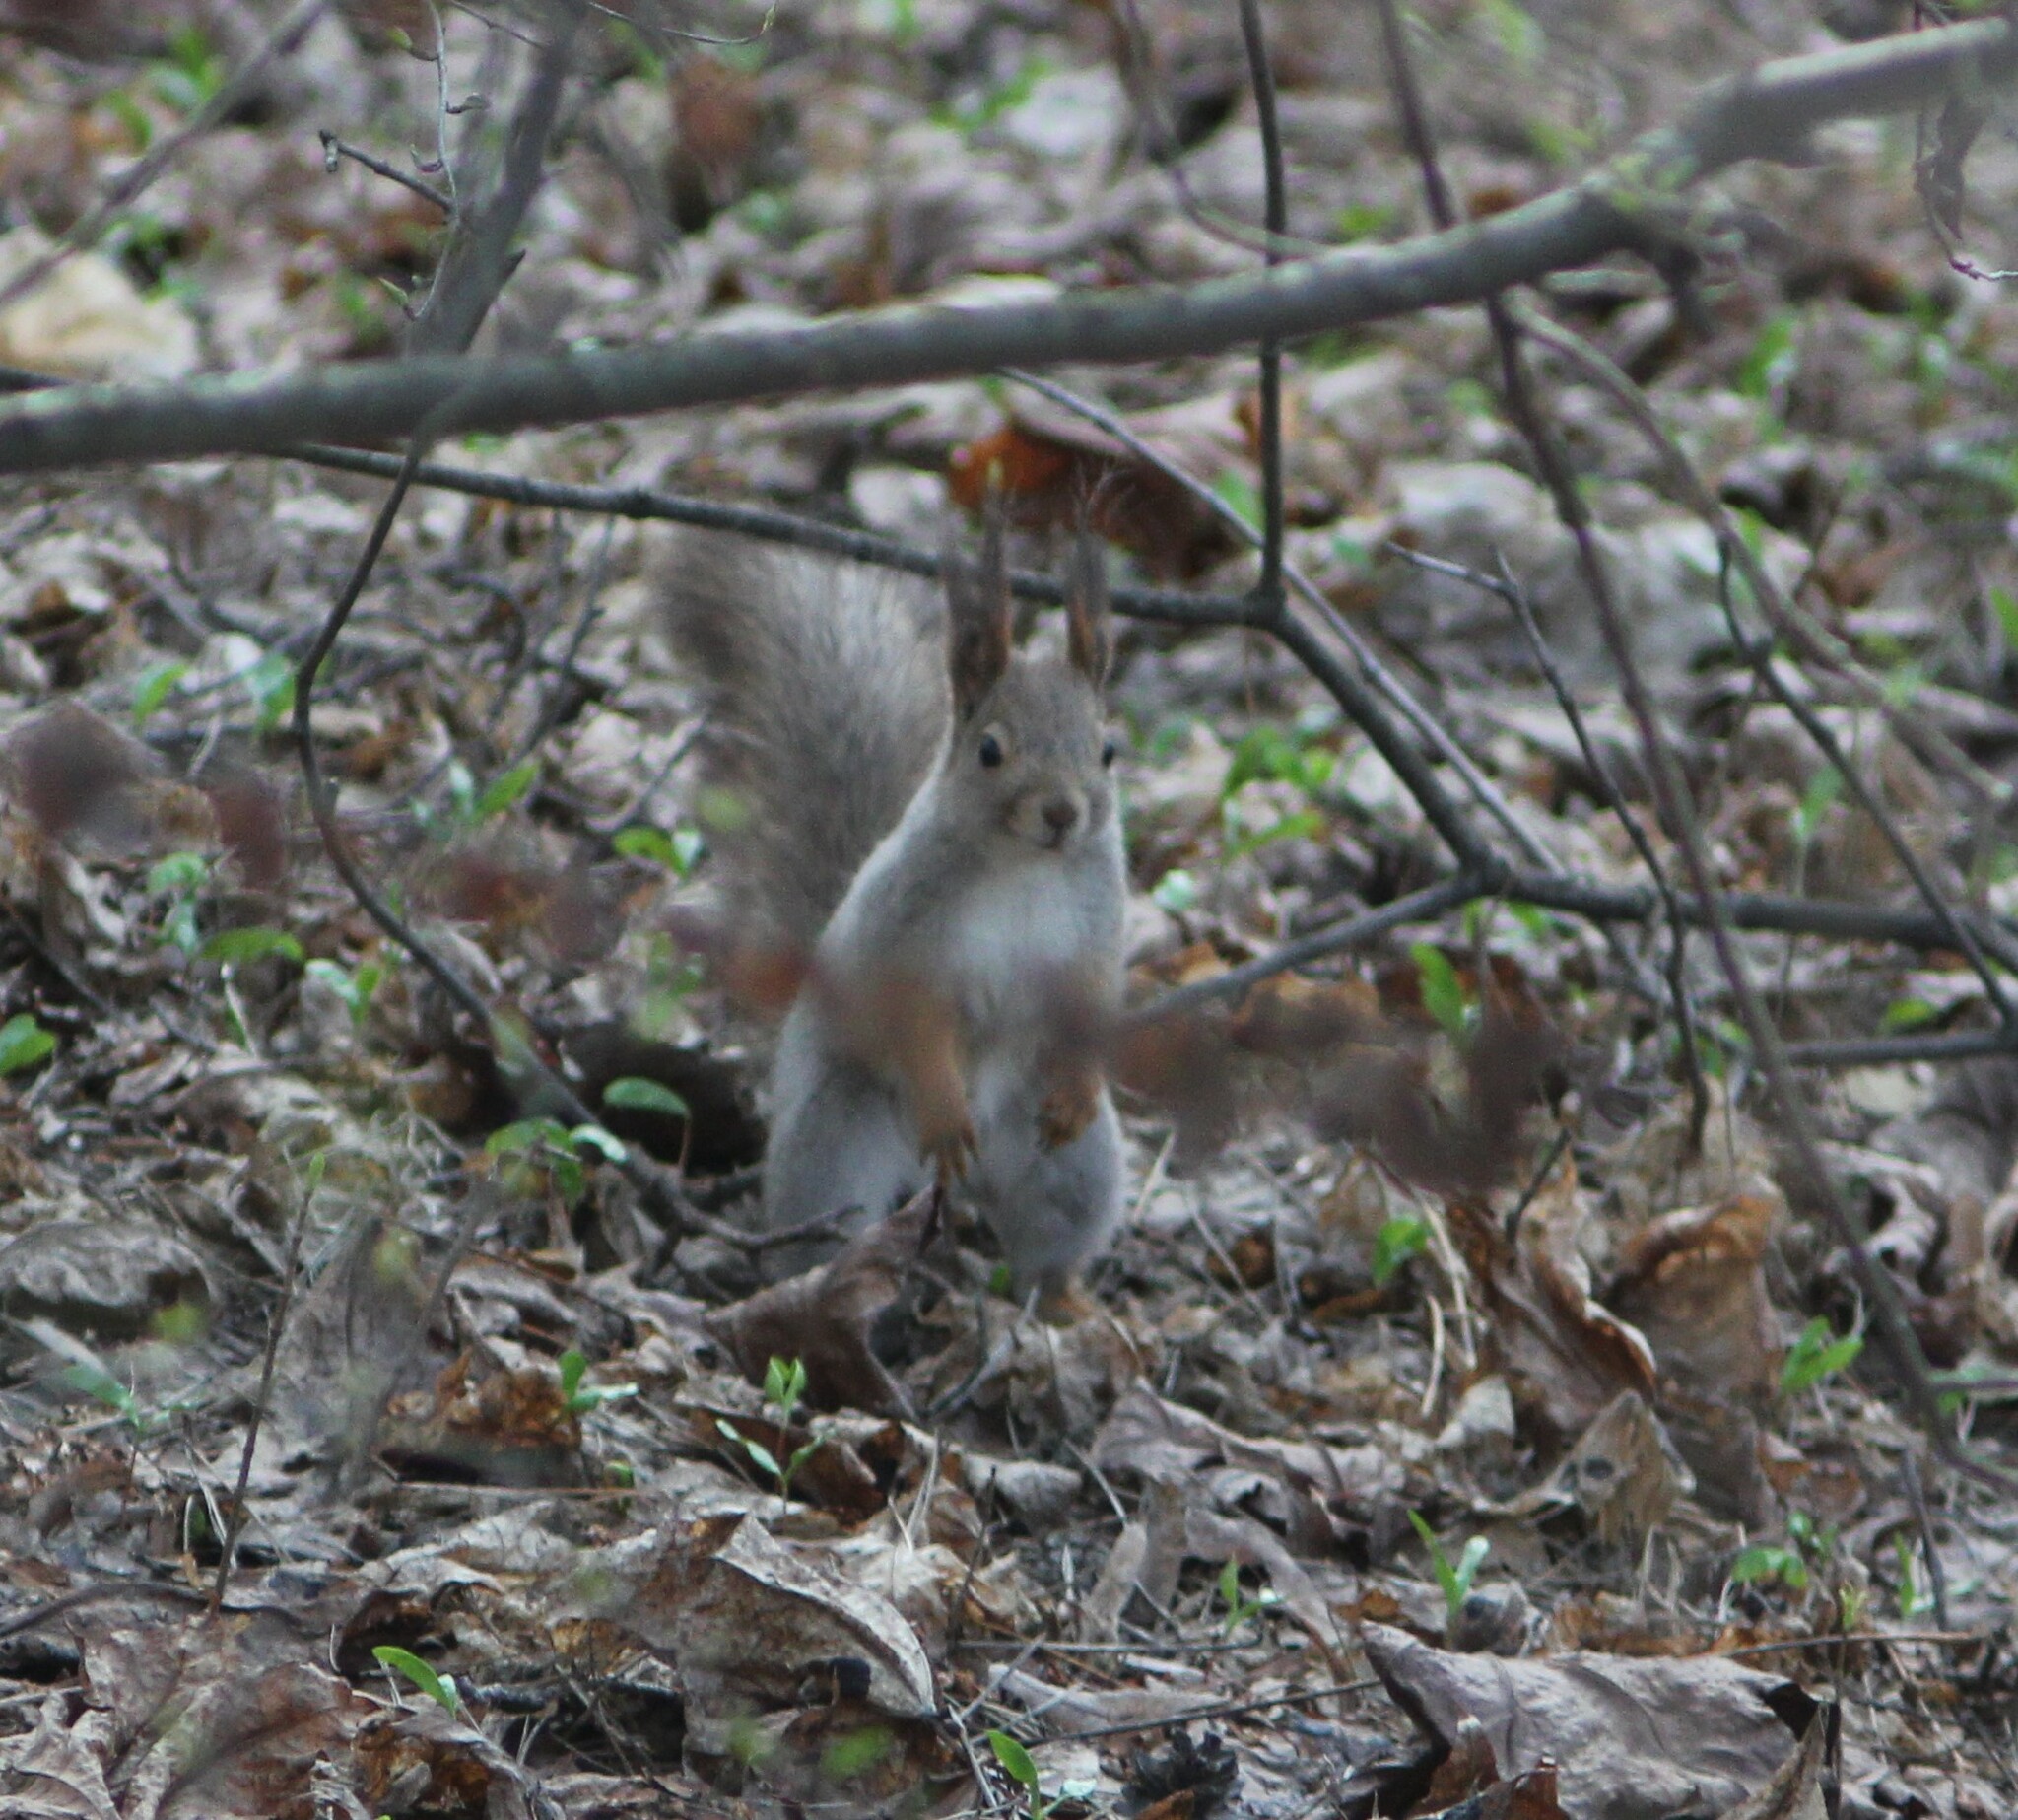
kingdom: Animalia
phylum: Chordata
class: Mammalia
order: Rodentia
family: Sciuridae
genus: Sciurus
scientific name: Sciurus vulgaris
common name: Eurasian red squirrel
